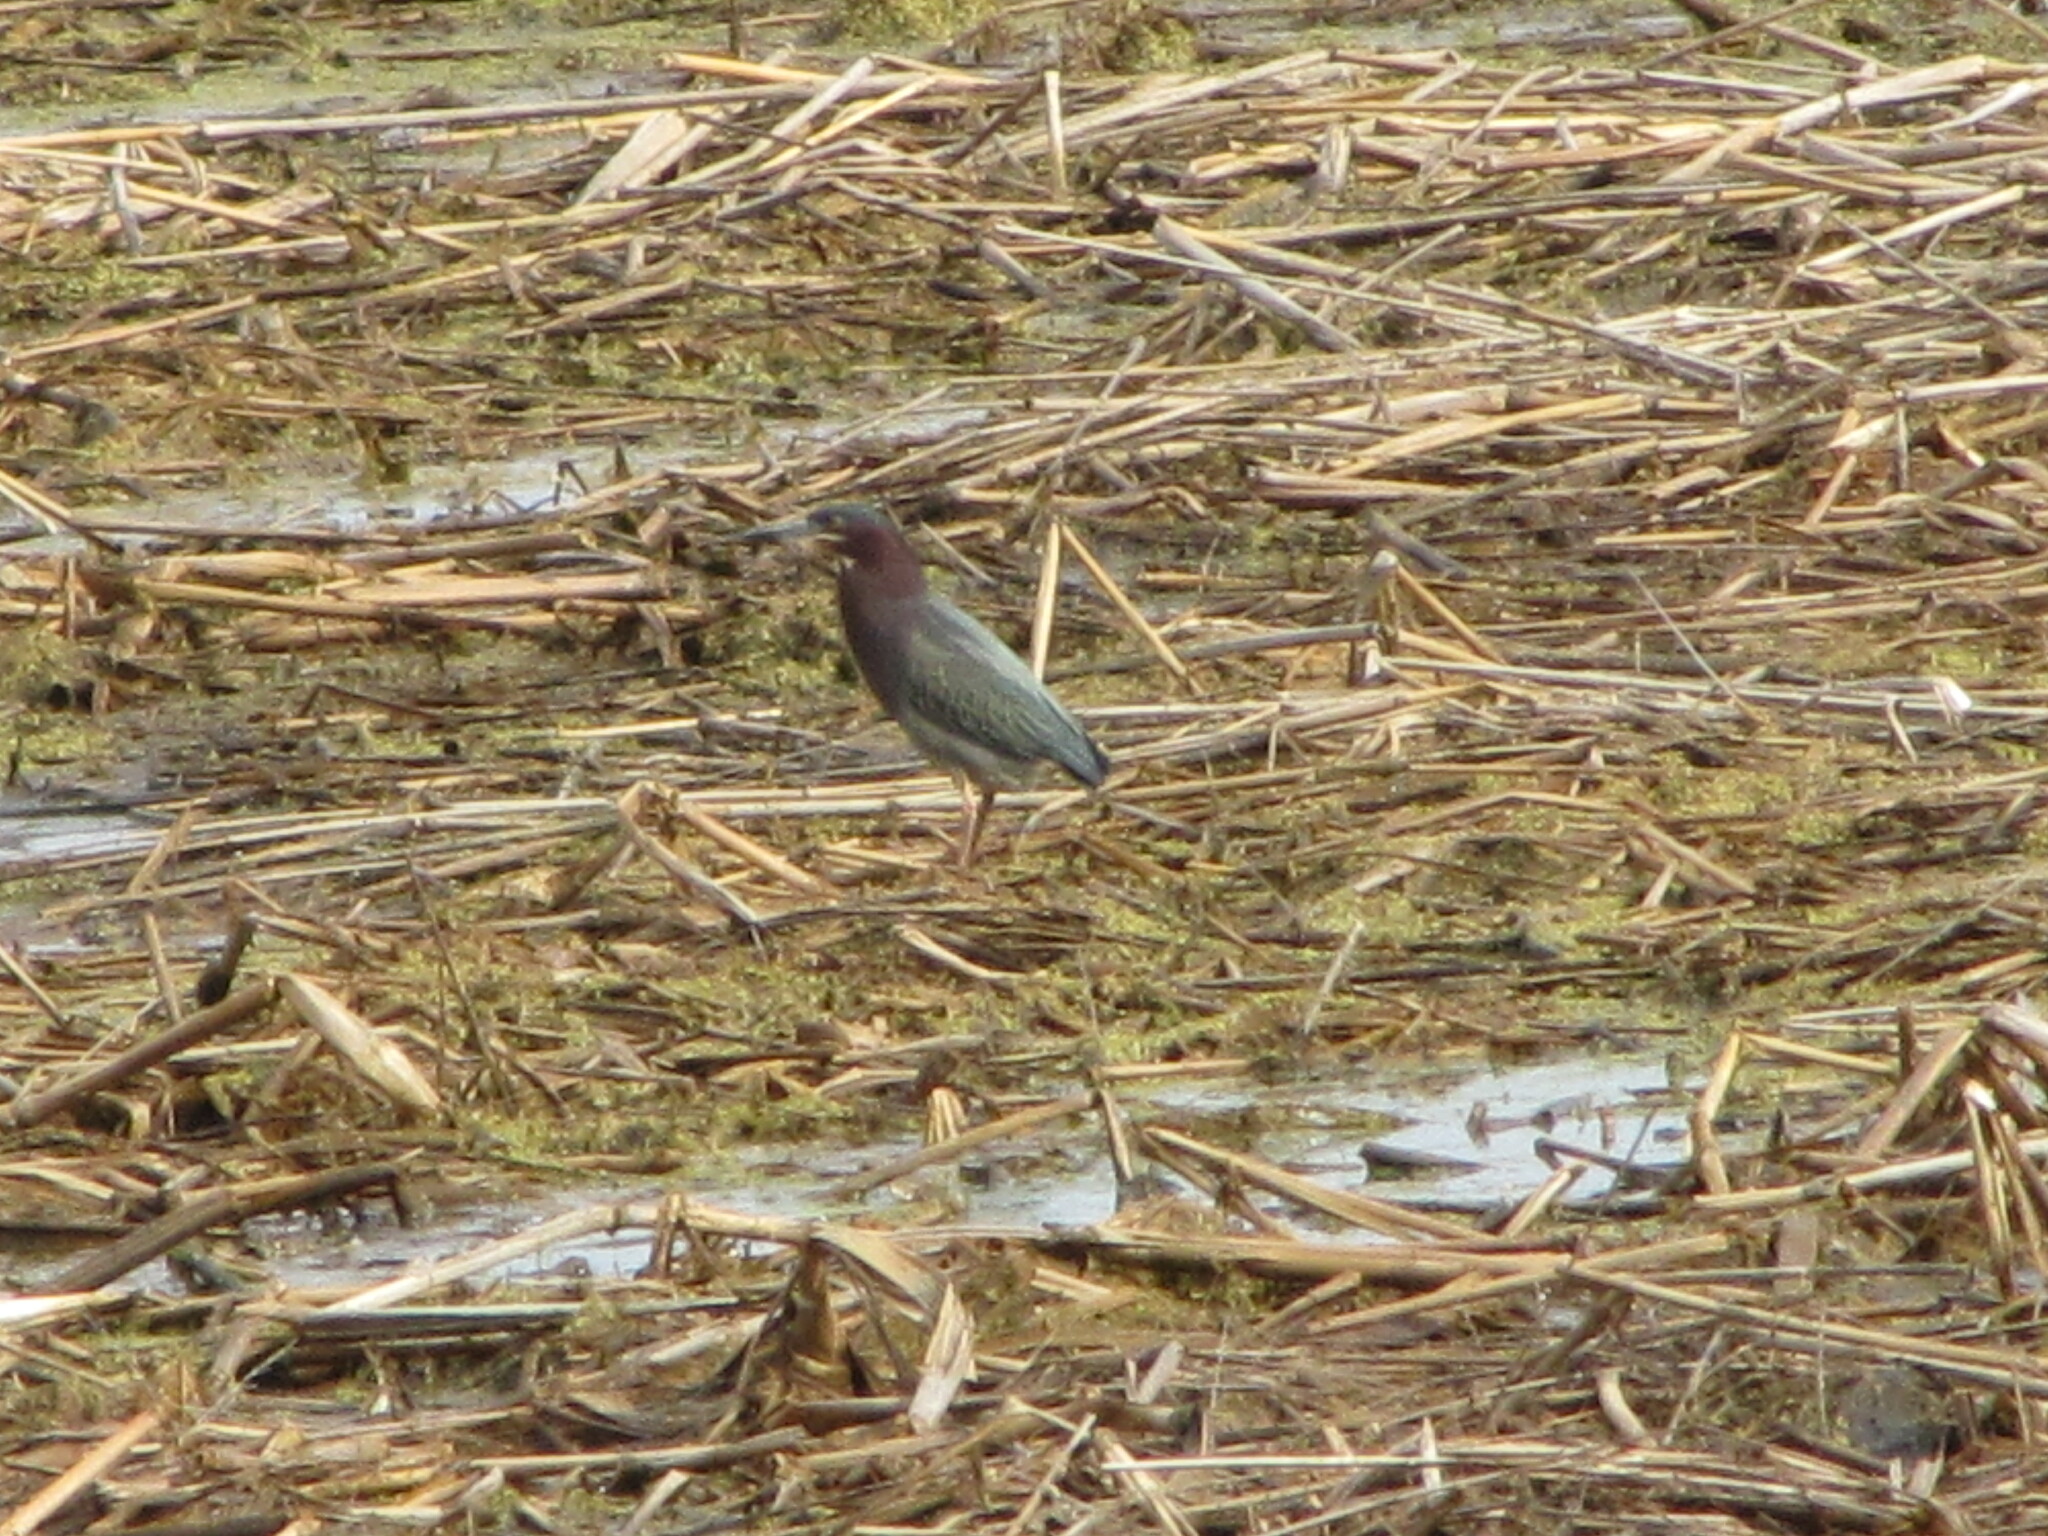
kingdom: Animalia
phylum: Chordata
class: Aves
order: Pelecaniformes
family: Ardeidae
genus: Butorides
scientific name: Butorides virescens
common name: Green heron
